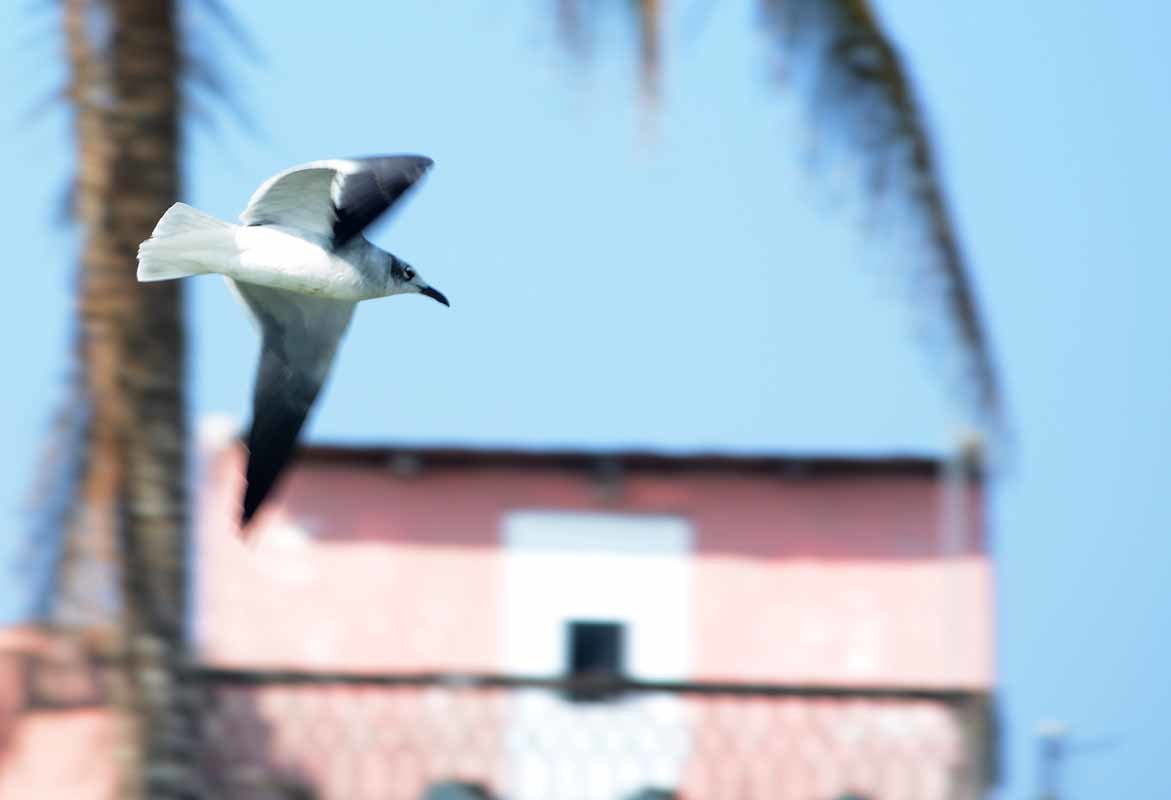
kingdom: Animalia
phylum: Chordata
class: Aves
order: Charadriiformes
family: Laridae
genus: Leucophaeus
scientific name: Leucophaeus atricilla
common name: Laughing gull
